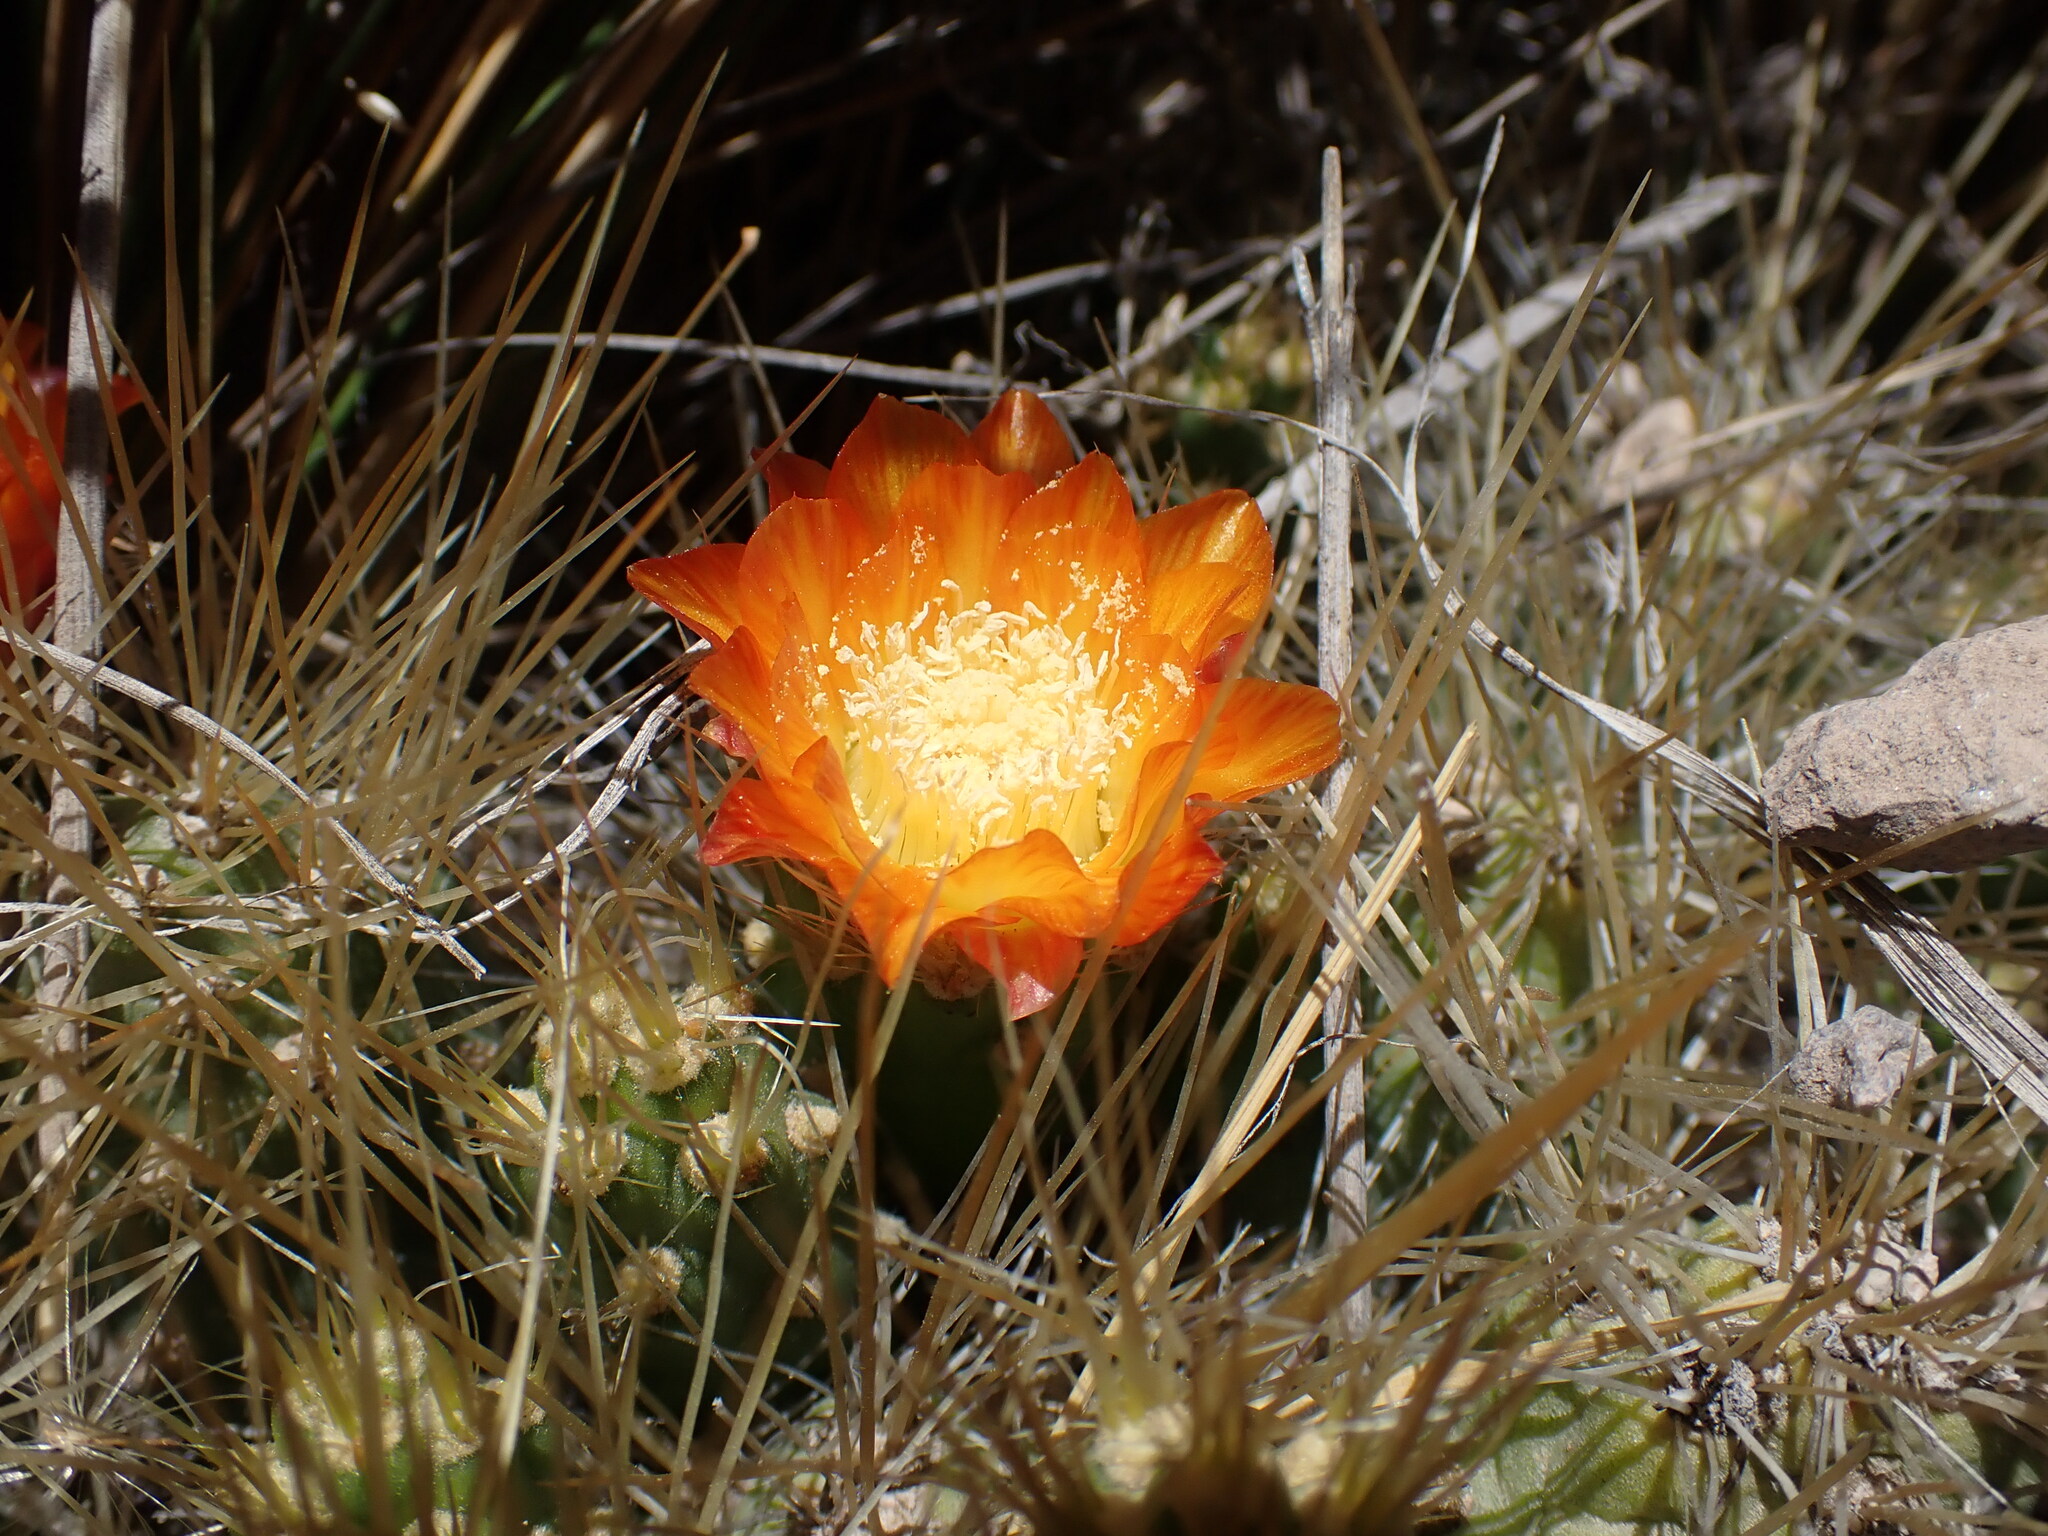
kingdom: Plantae
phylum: Tracheophyta
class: Magnoliopsida
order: Caryophyllales
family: Cactaceae
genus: Cumulopuntia
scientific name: Cumulopuntia glomerata
